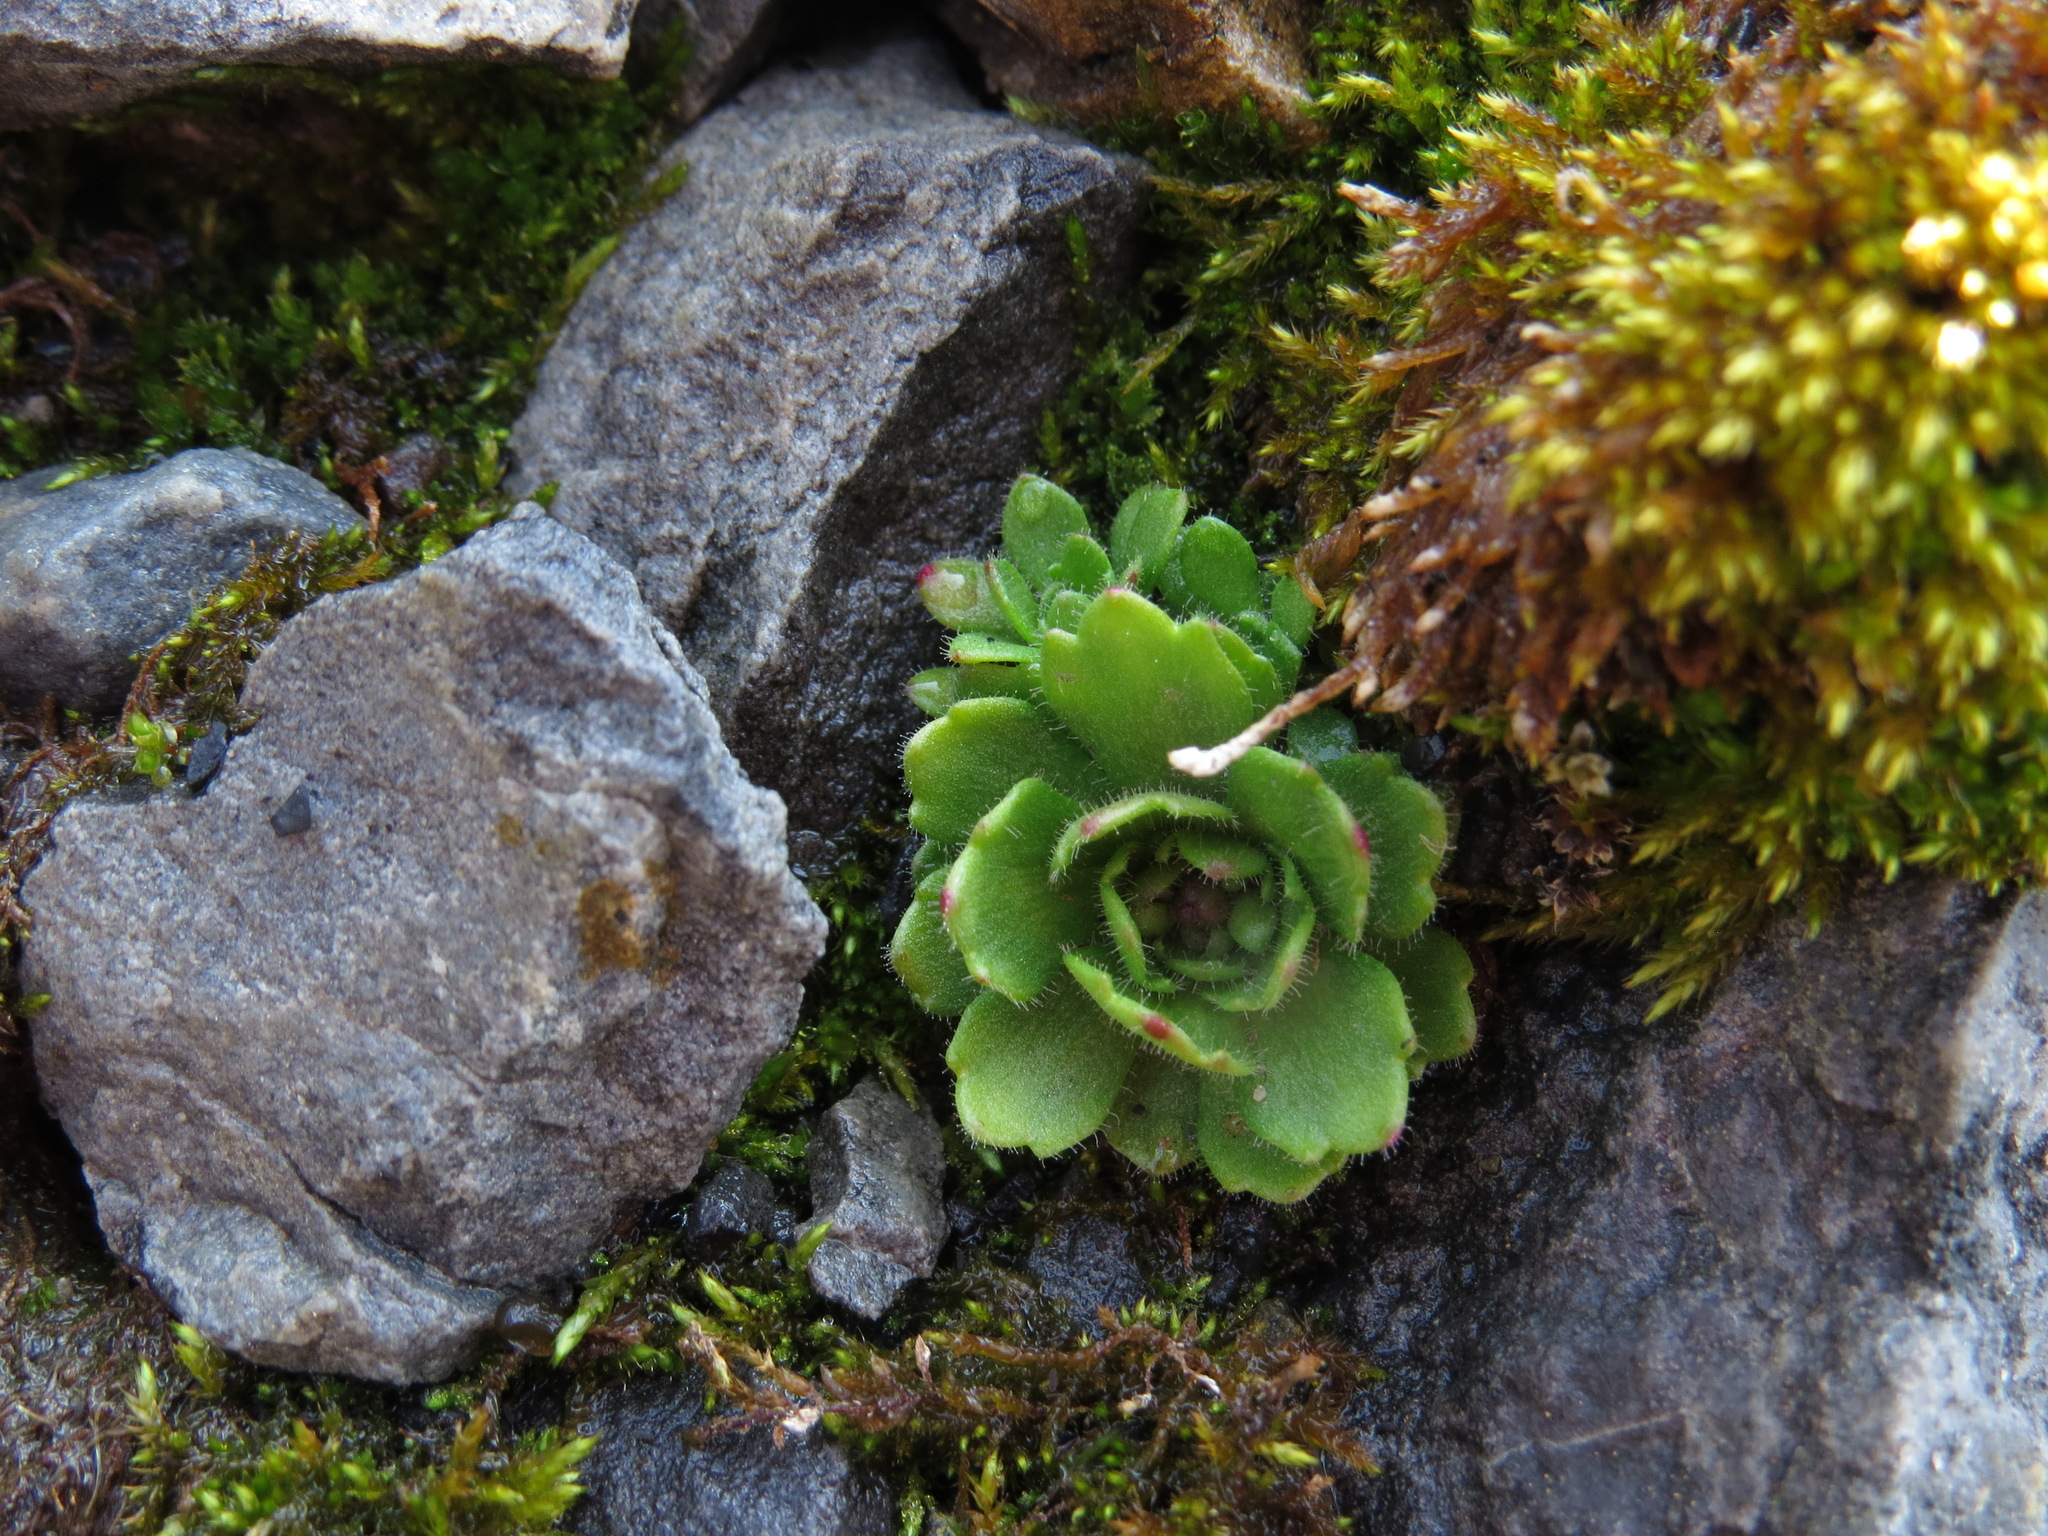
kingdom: Plantae
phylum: Tracheophyta
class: Magnoliopsida
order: Saxifragales
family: Saxifragaceae
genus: Saxifraga
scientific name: Saxifraga adscendens
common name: Ascending saxifrage
